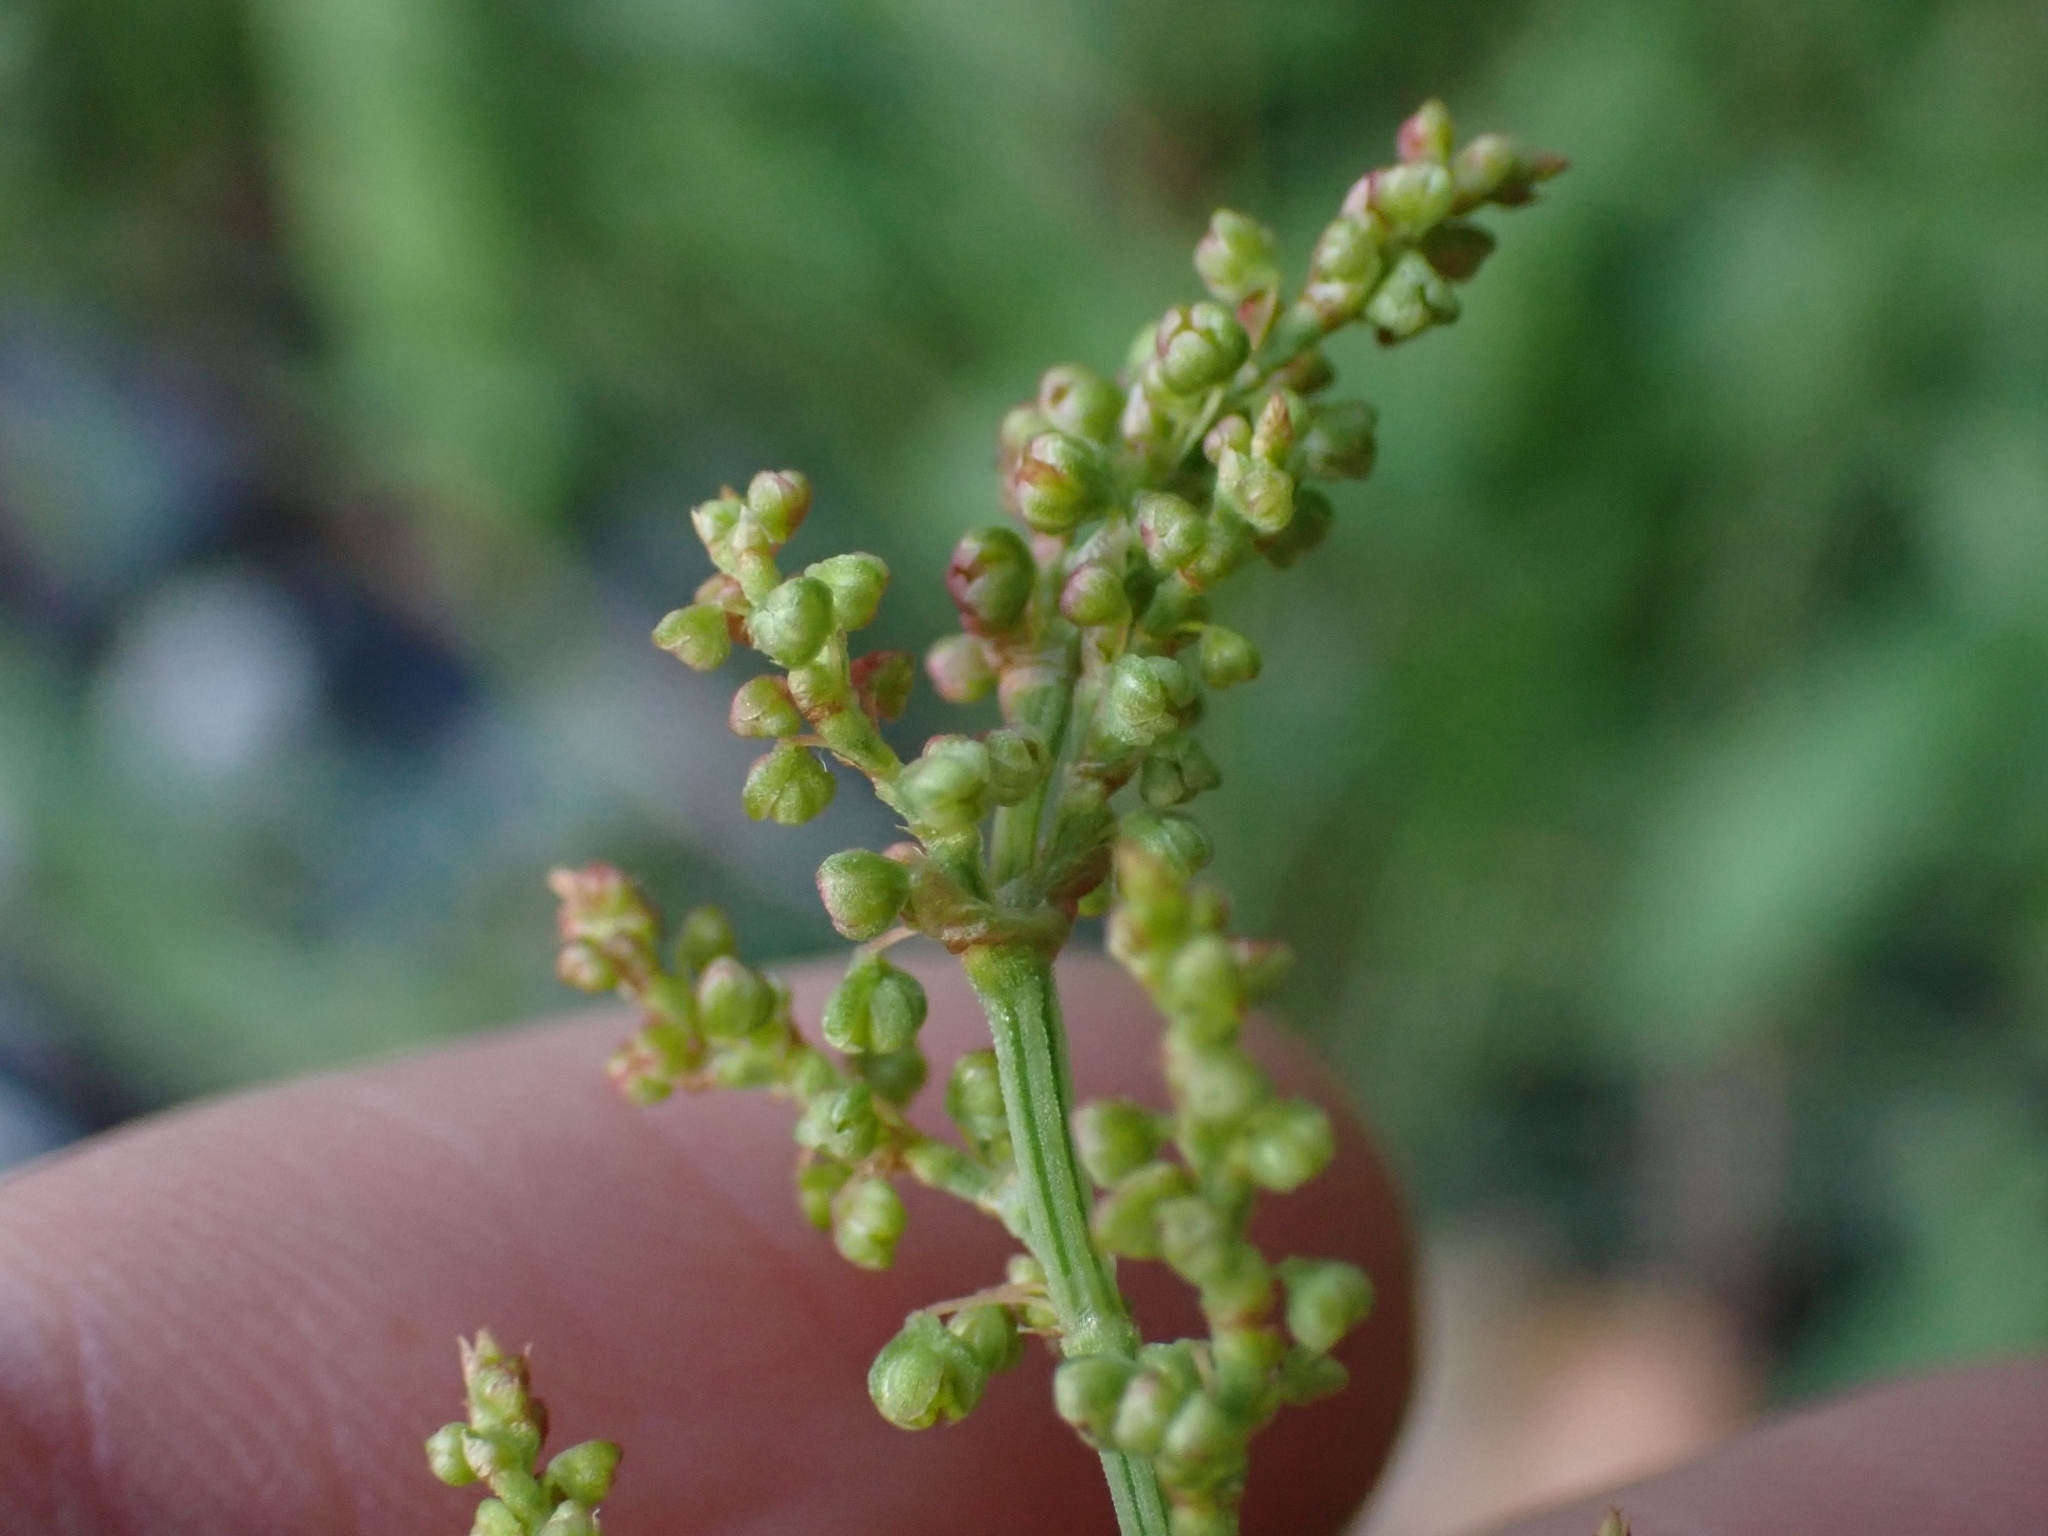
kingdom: Plantae
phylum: Tracheophyta
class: Magnoliopsida
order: Caryophyllales
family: Polygonaceae
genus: Rumex
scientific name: Rumex acetosella
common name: Common sheep sorrel
